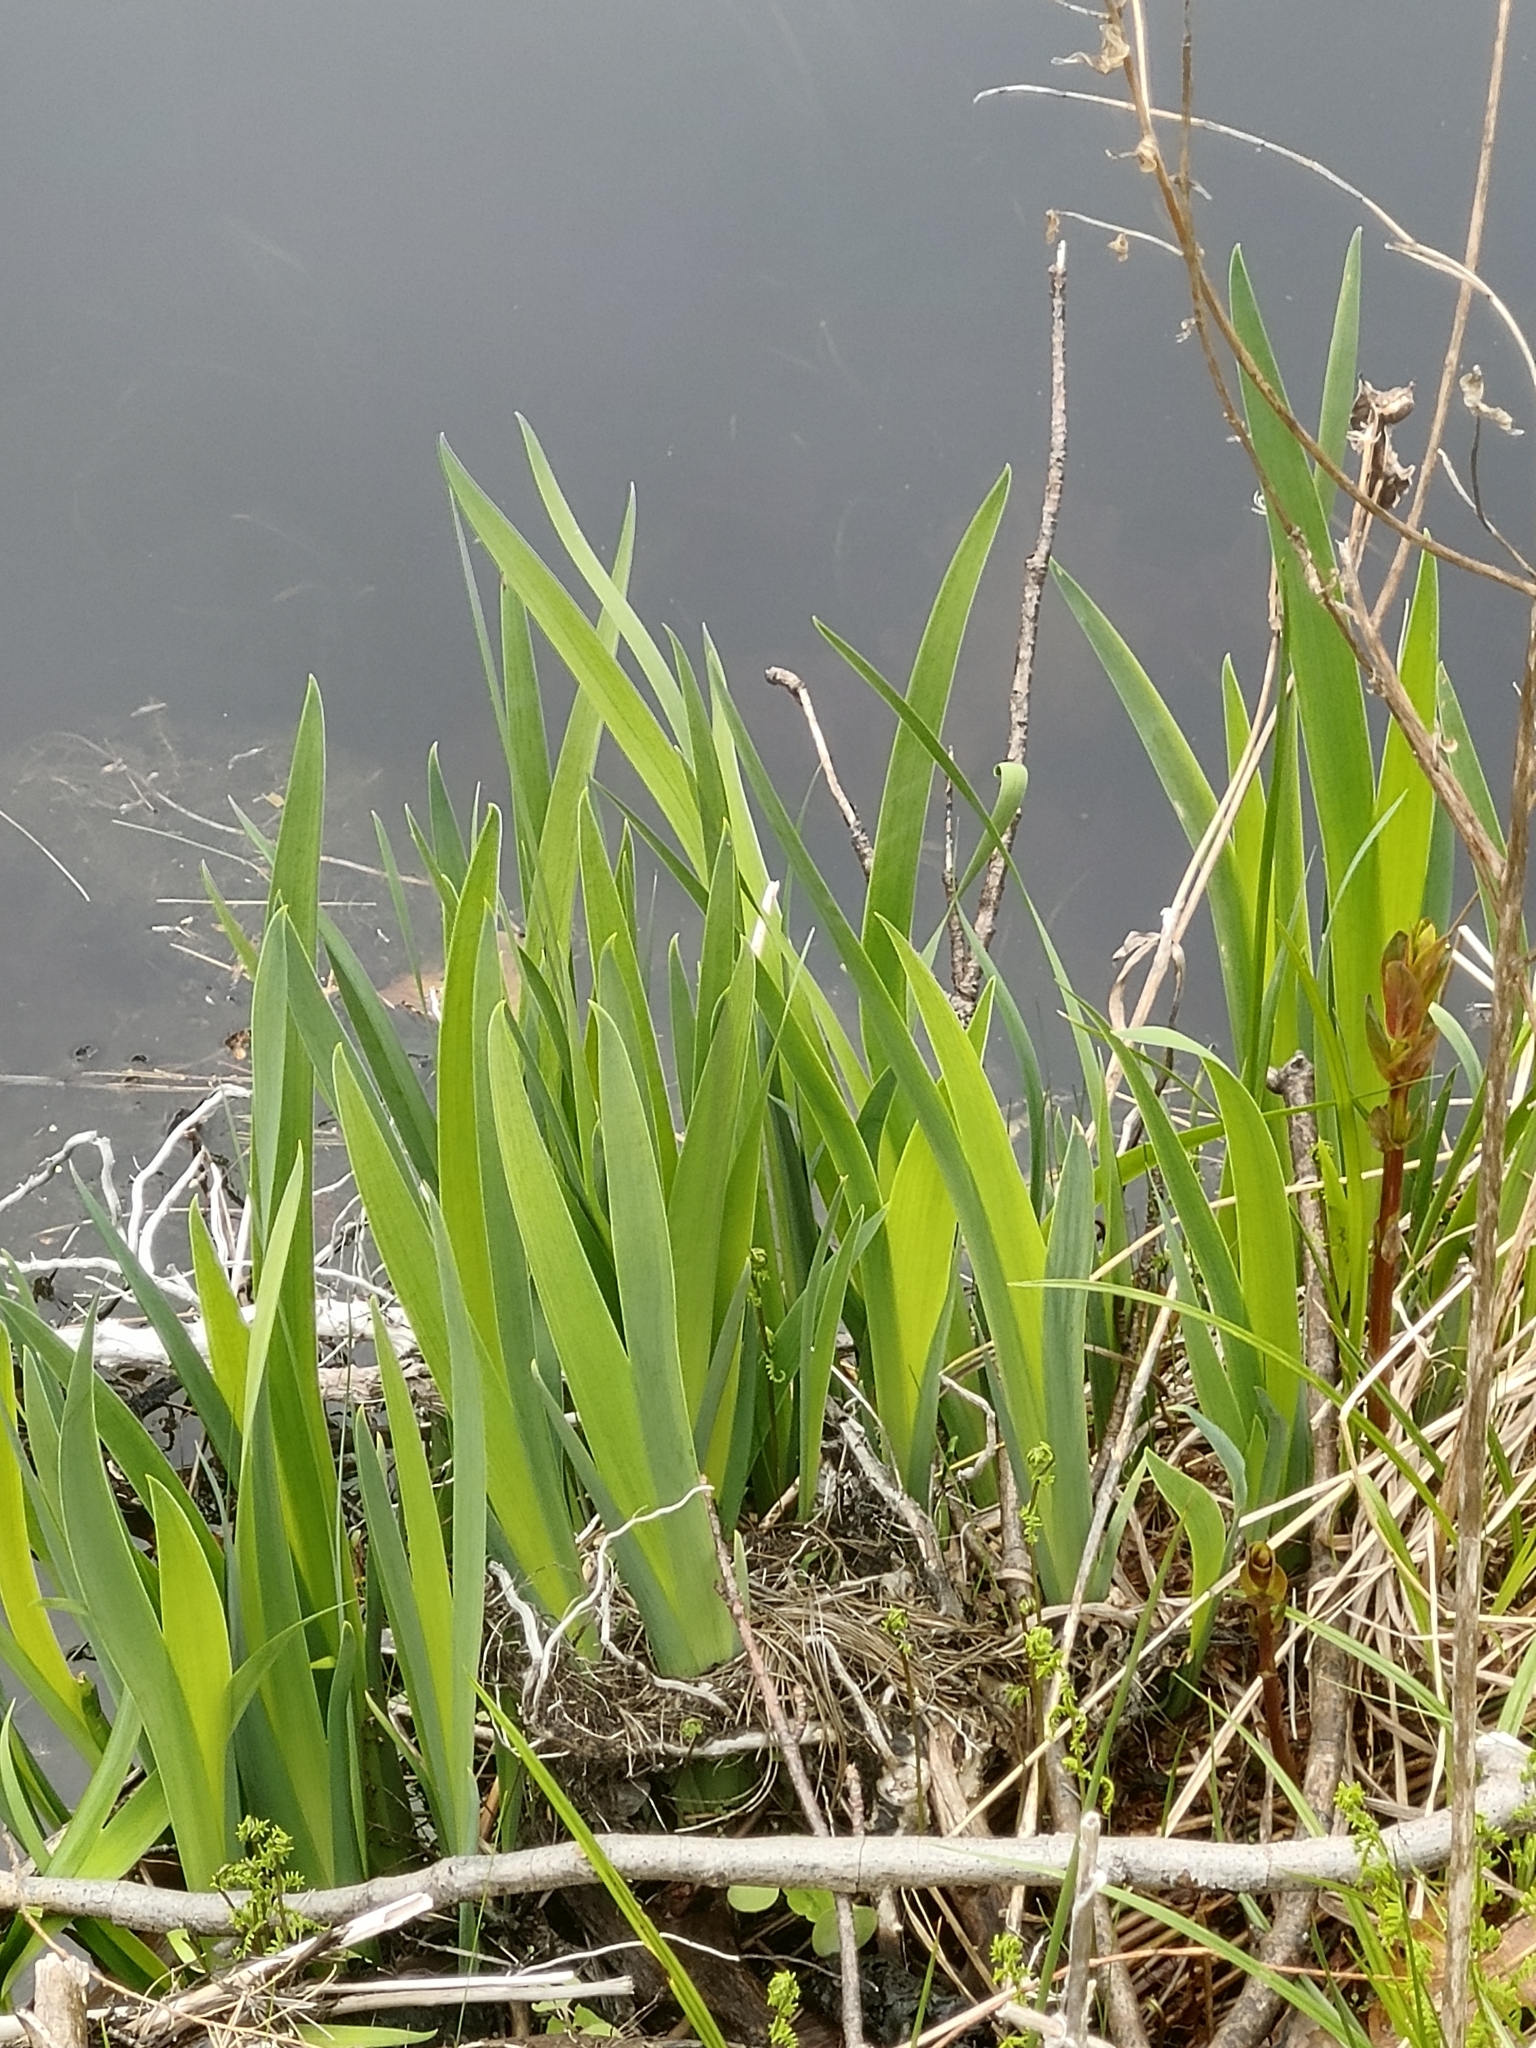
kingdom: Plantae
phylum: Tracheophyta
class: Liliopsida
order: Asparagales
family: Iridaceae
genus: Iris
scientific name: Iris
